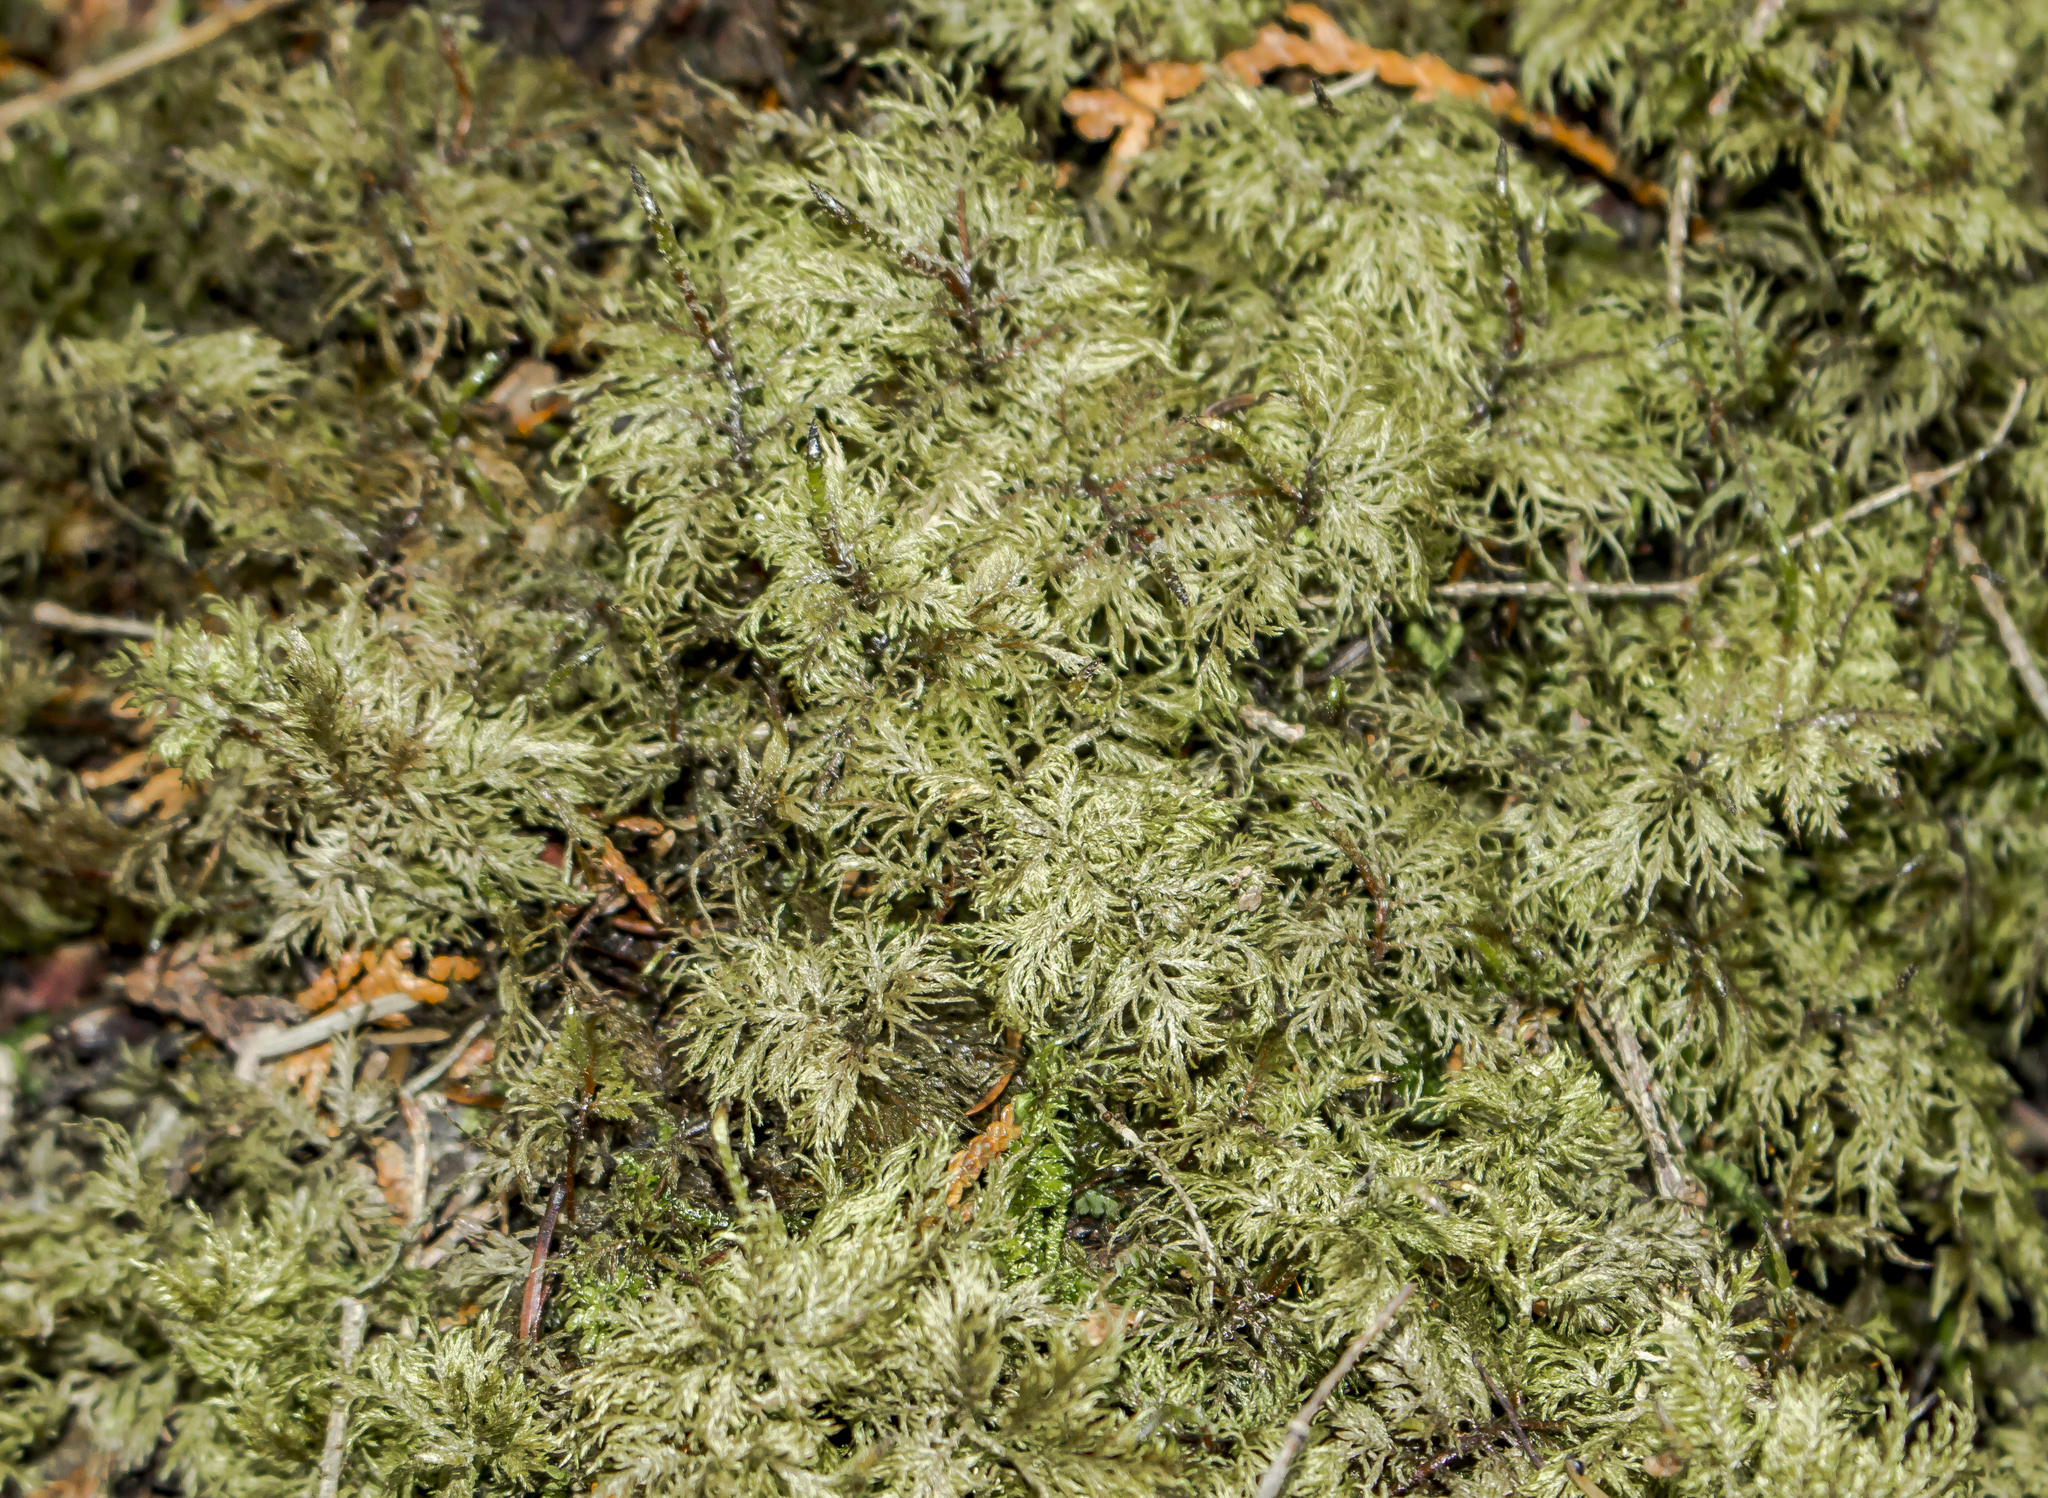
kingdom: Plantae
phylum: Bryophyta
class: Bryopsida
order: Hypnales
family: Hylocomiaceae
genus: Hylocomium
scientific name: Hylocomium splendens
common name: Stairstep moss
